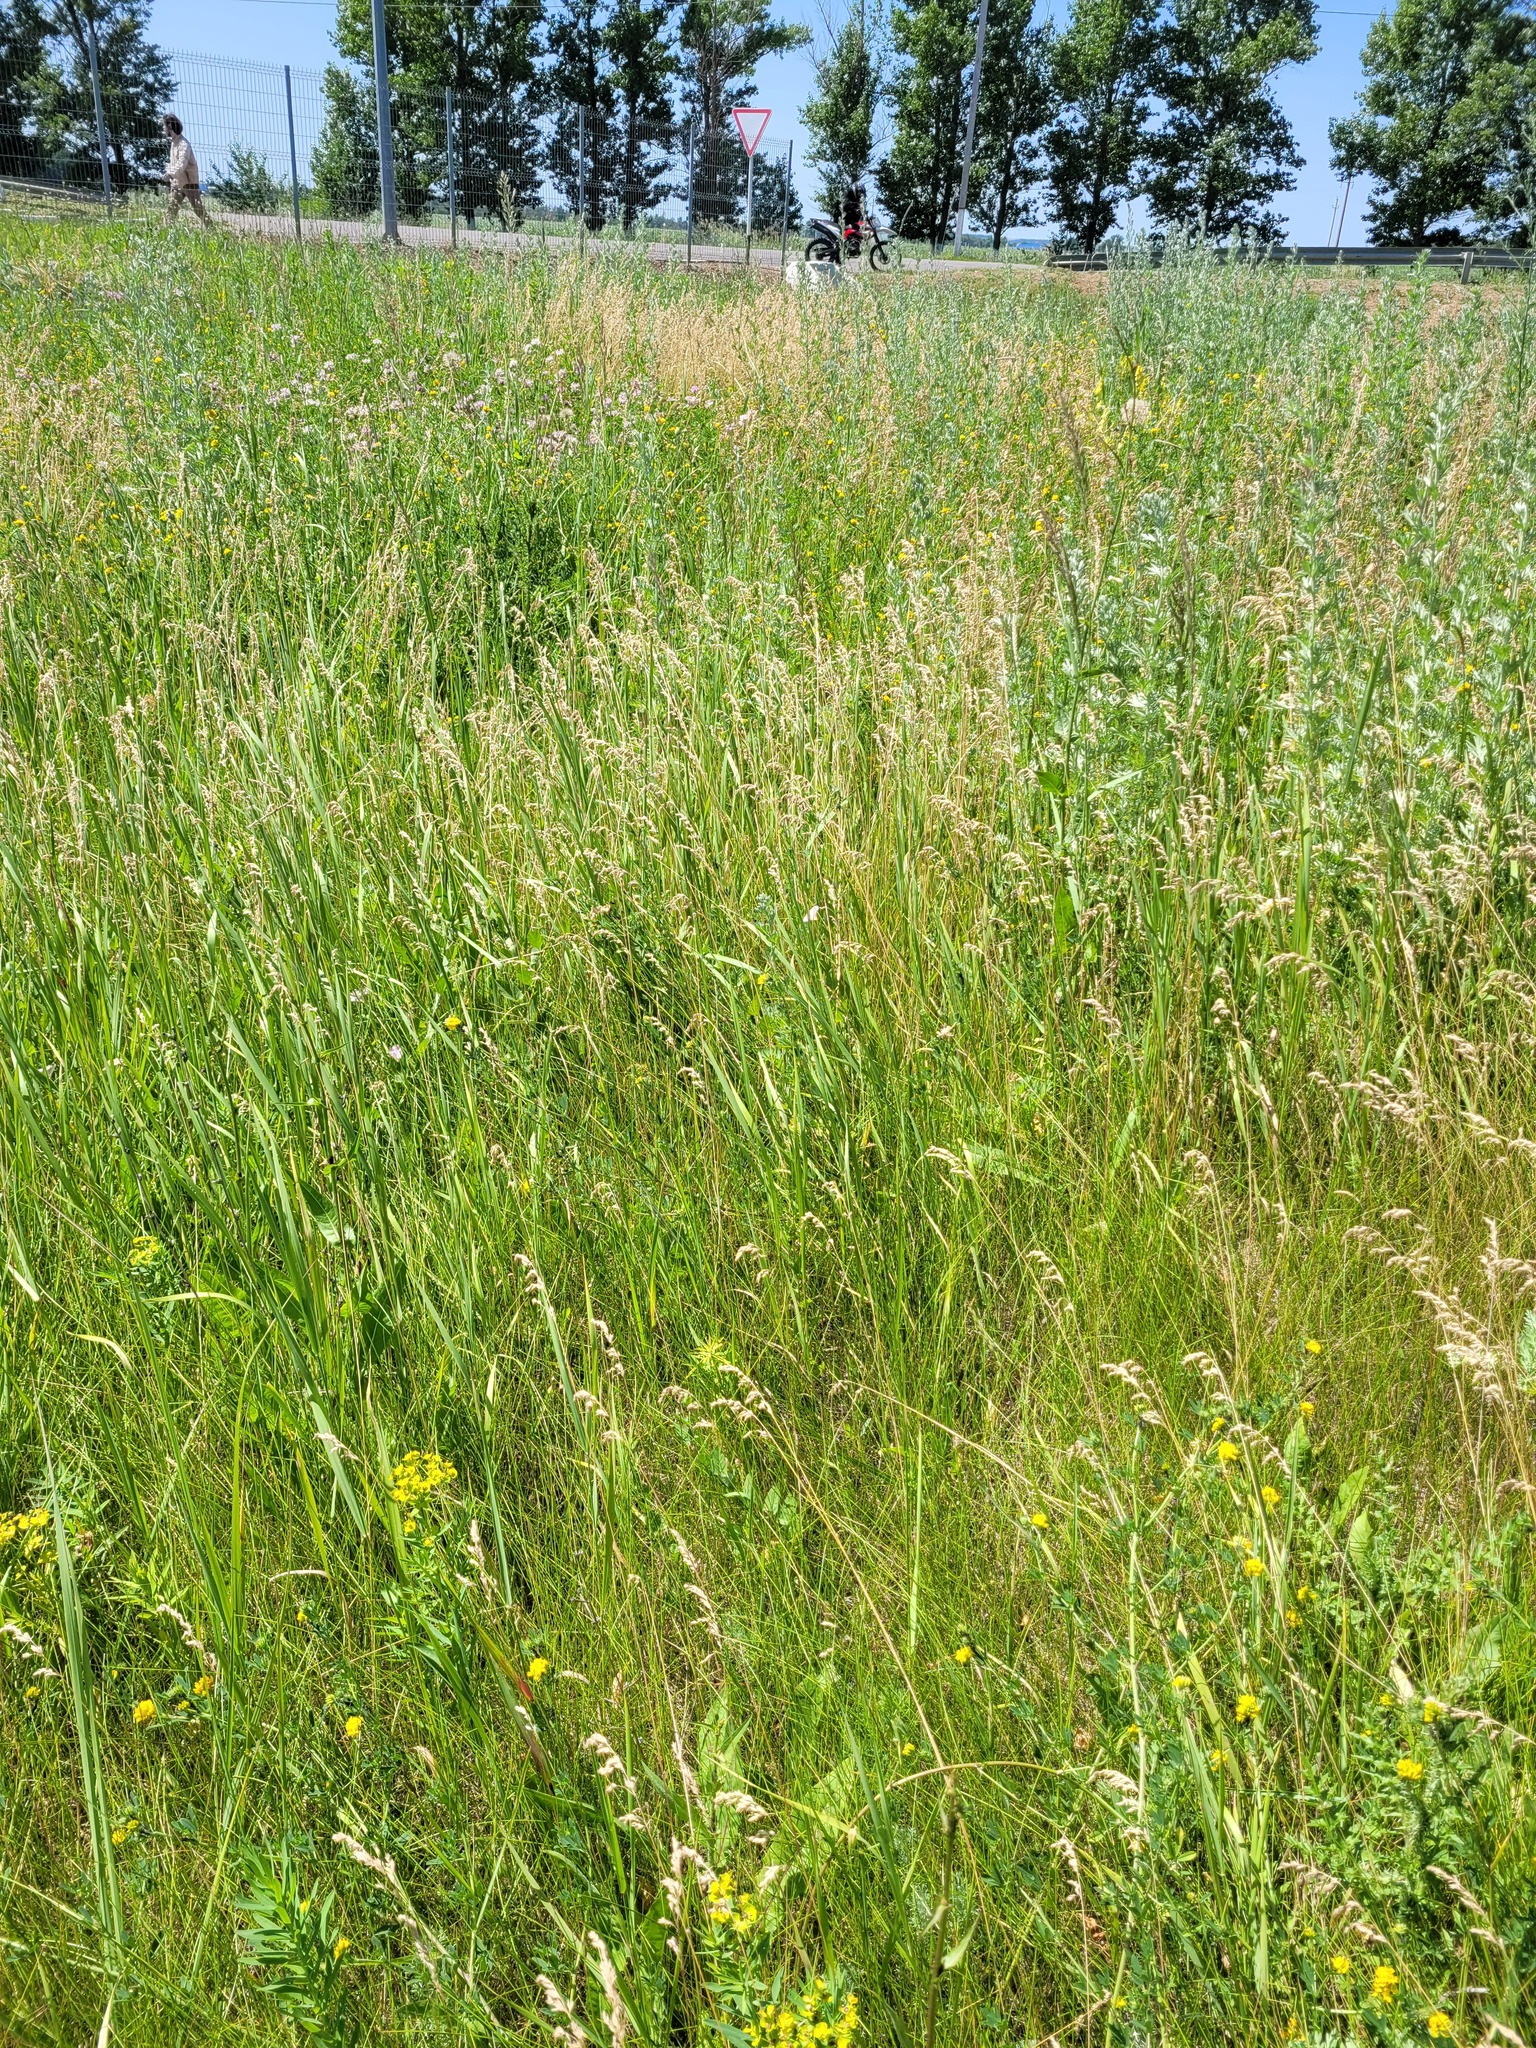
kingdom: Plantae
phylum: Tracheophyta
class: Liliopsida
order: Poales
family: Poaceae
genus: Poa
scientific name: Poa angustifolia
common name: Narrow-leaved meadow-grass
